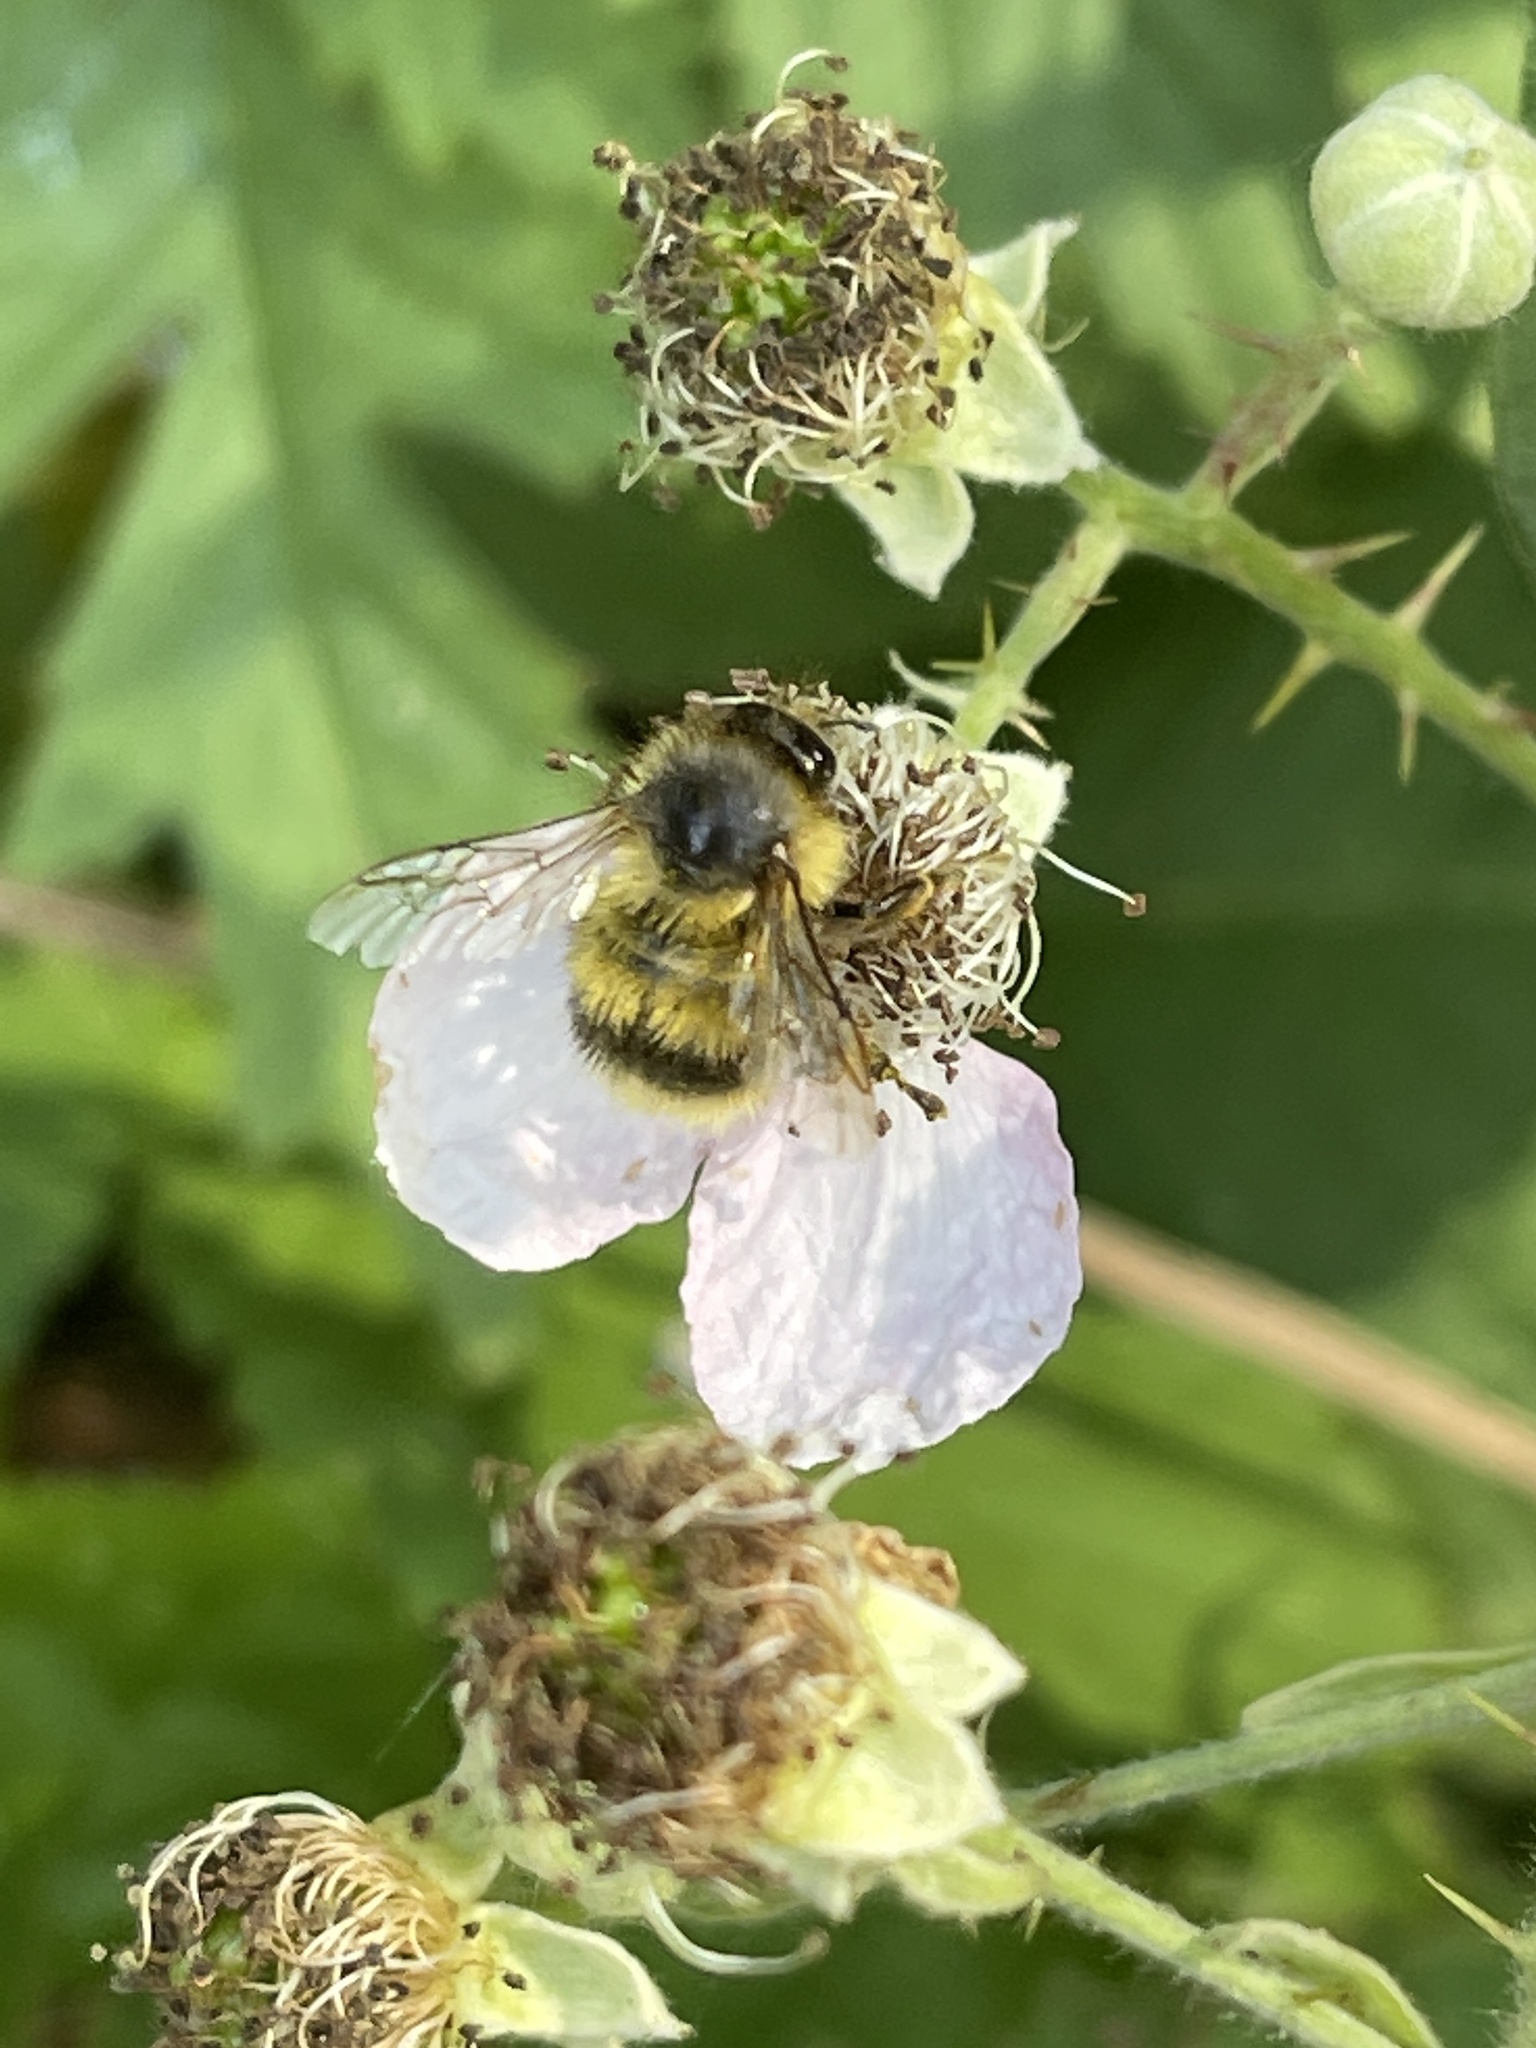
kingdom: Animalia
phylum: Arthropoda
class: Insecta
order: Hymenoptera
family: Apidae
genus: Bombus
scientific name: Bombus mixtus
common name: Fuzzy-horned bumble bee
